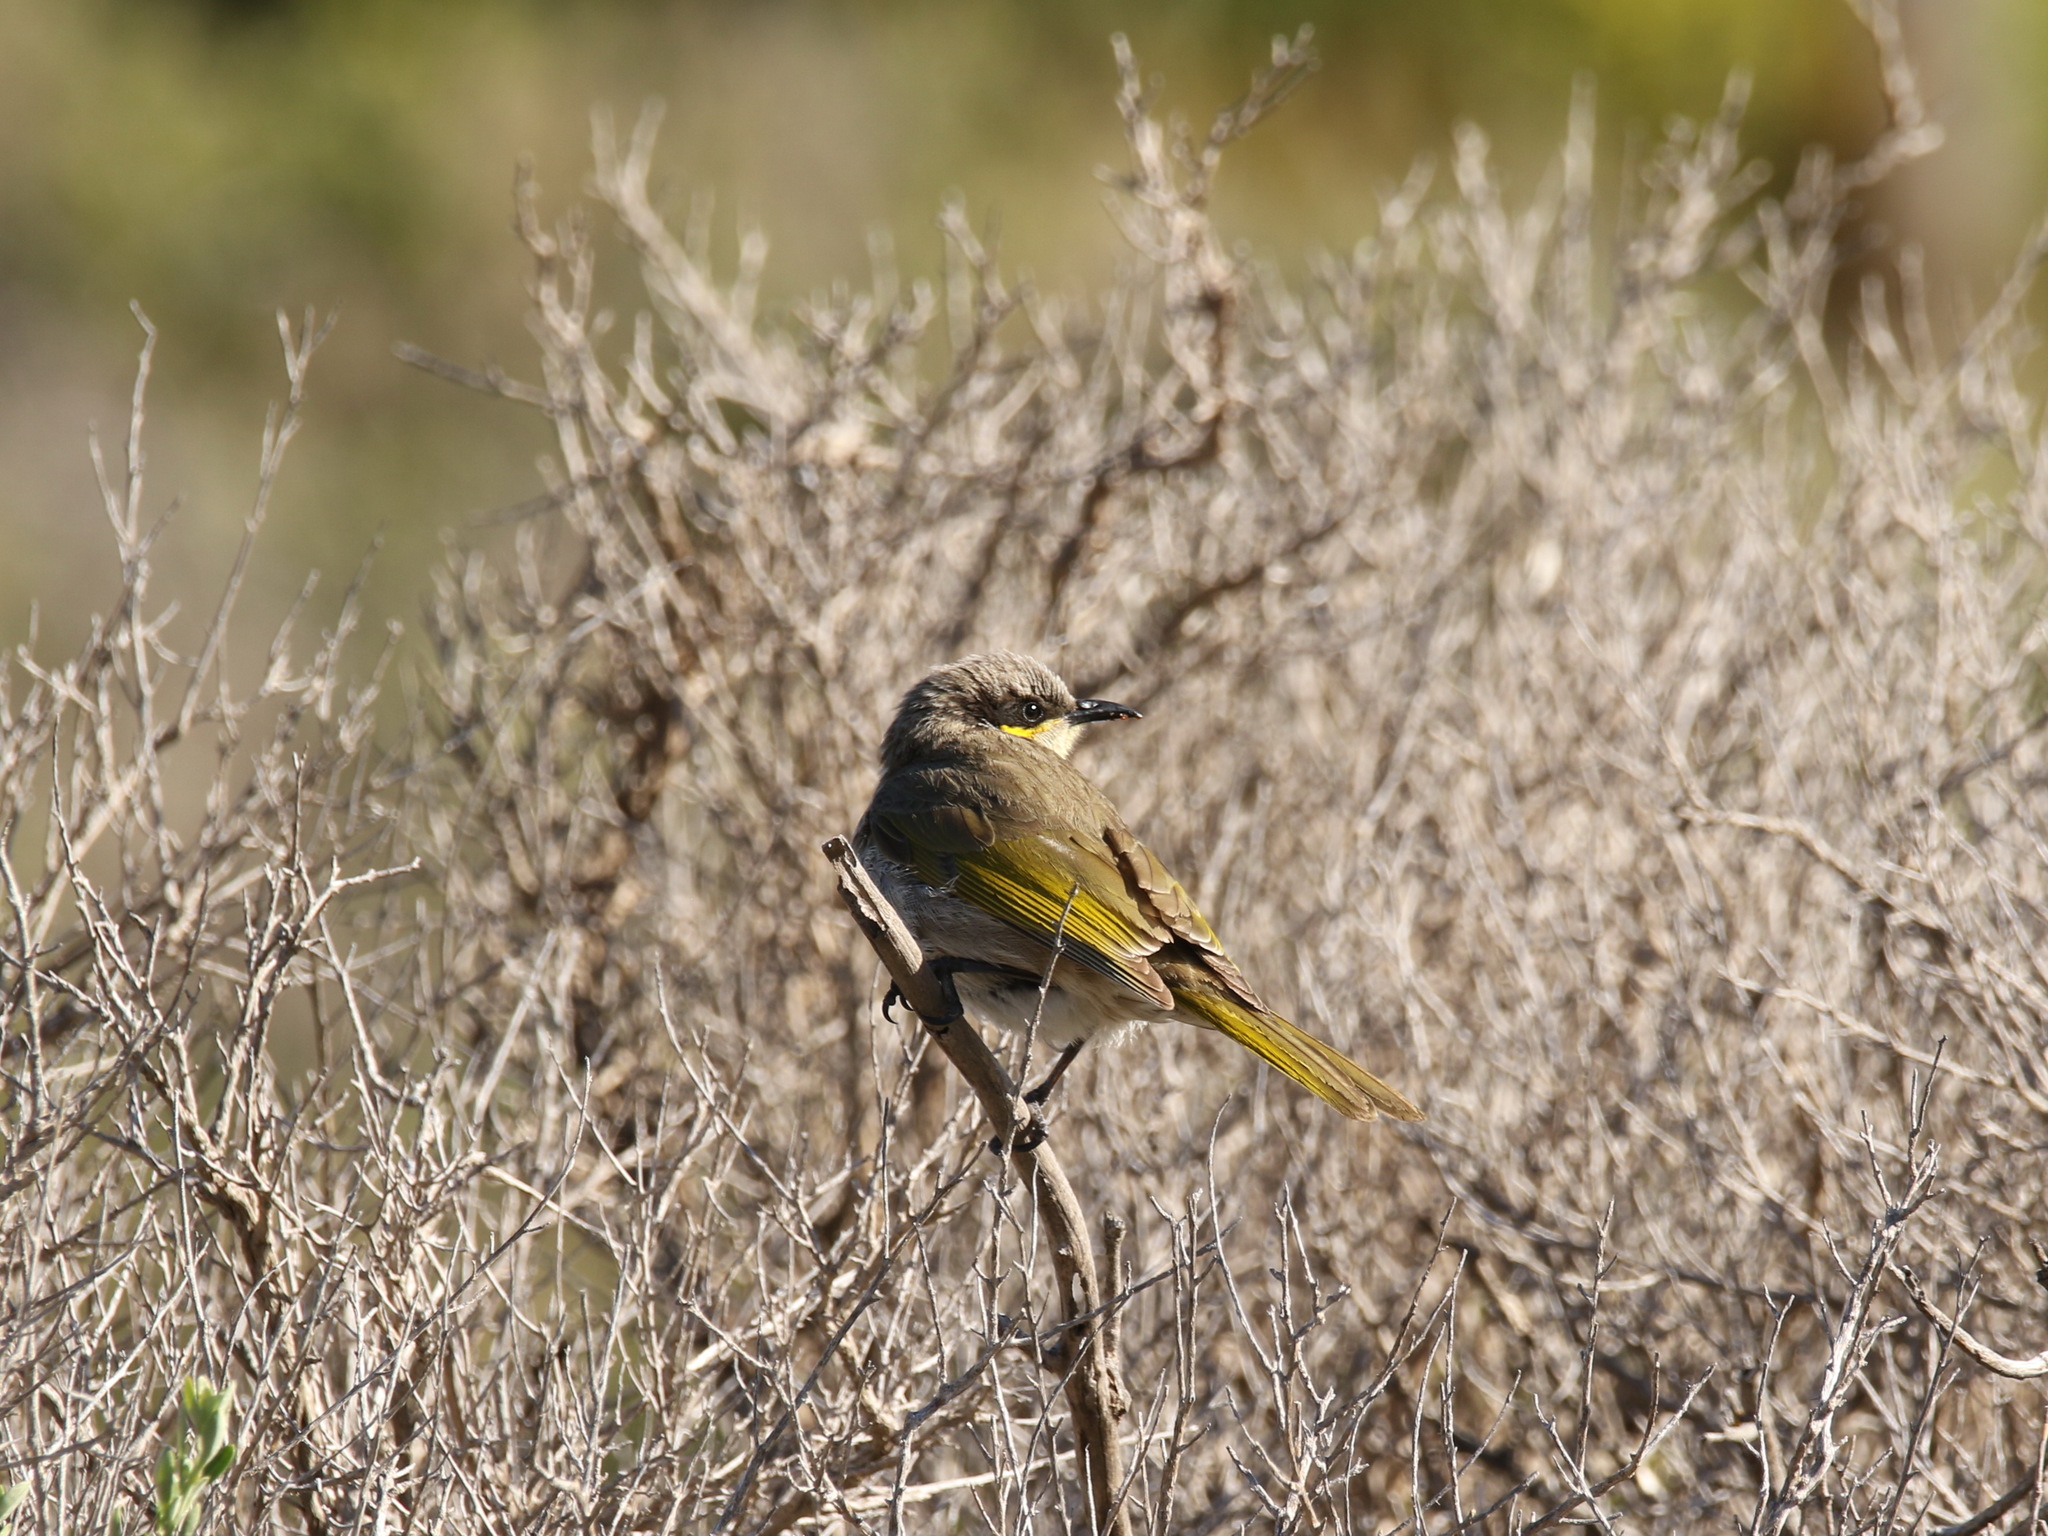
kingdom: Animalia
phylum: Chordata
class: Aves
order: Passeriformes
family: Meliphagidae
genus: Gavicalis
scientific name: Gavicalis virescens
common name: Singing honeyeater
